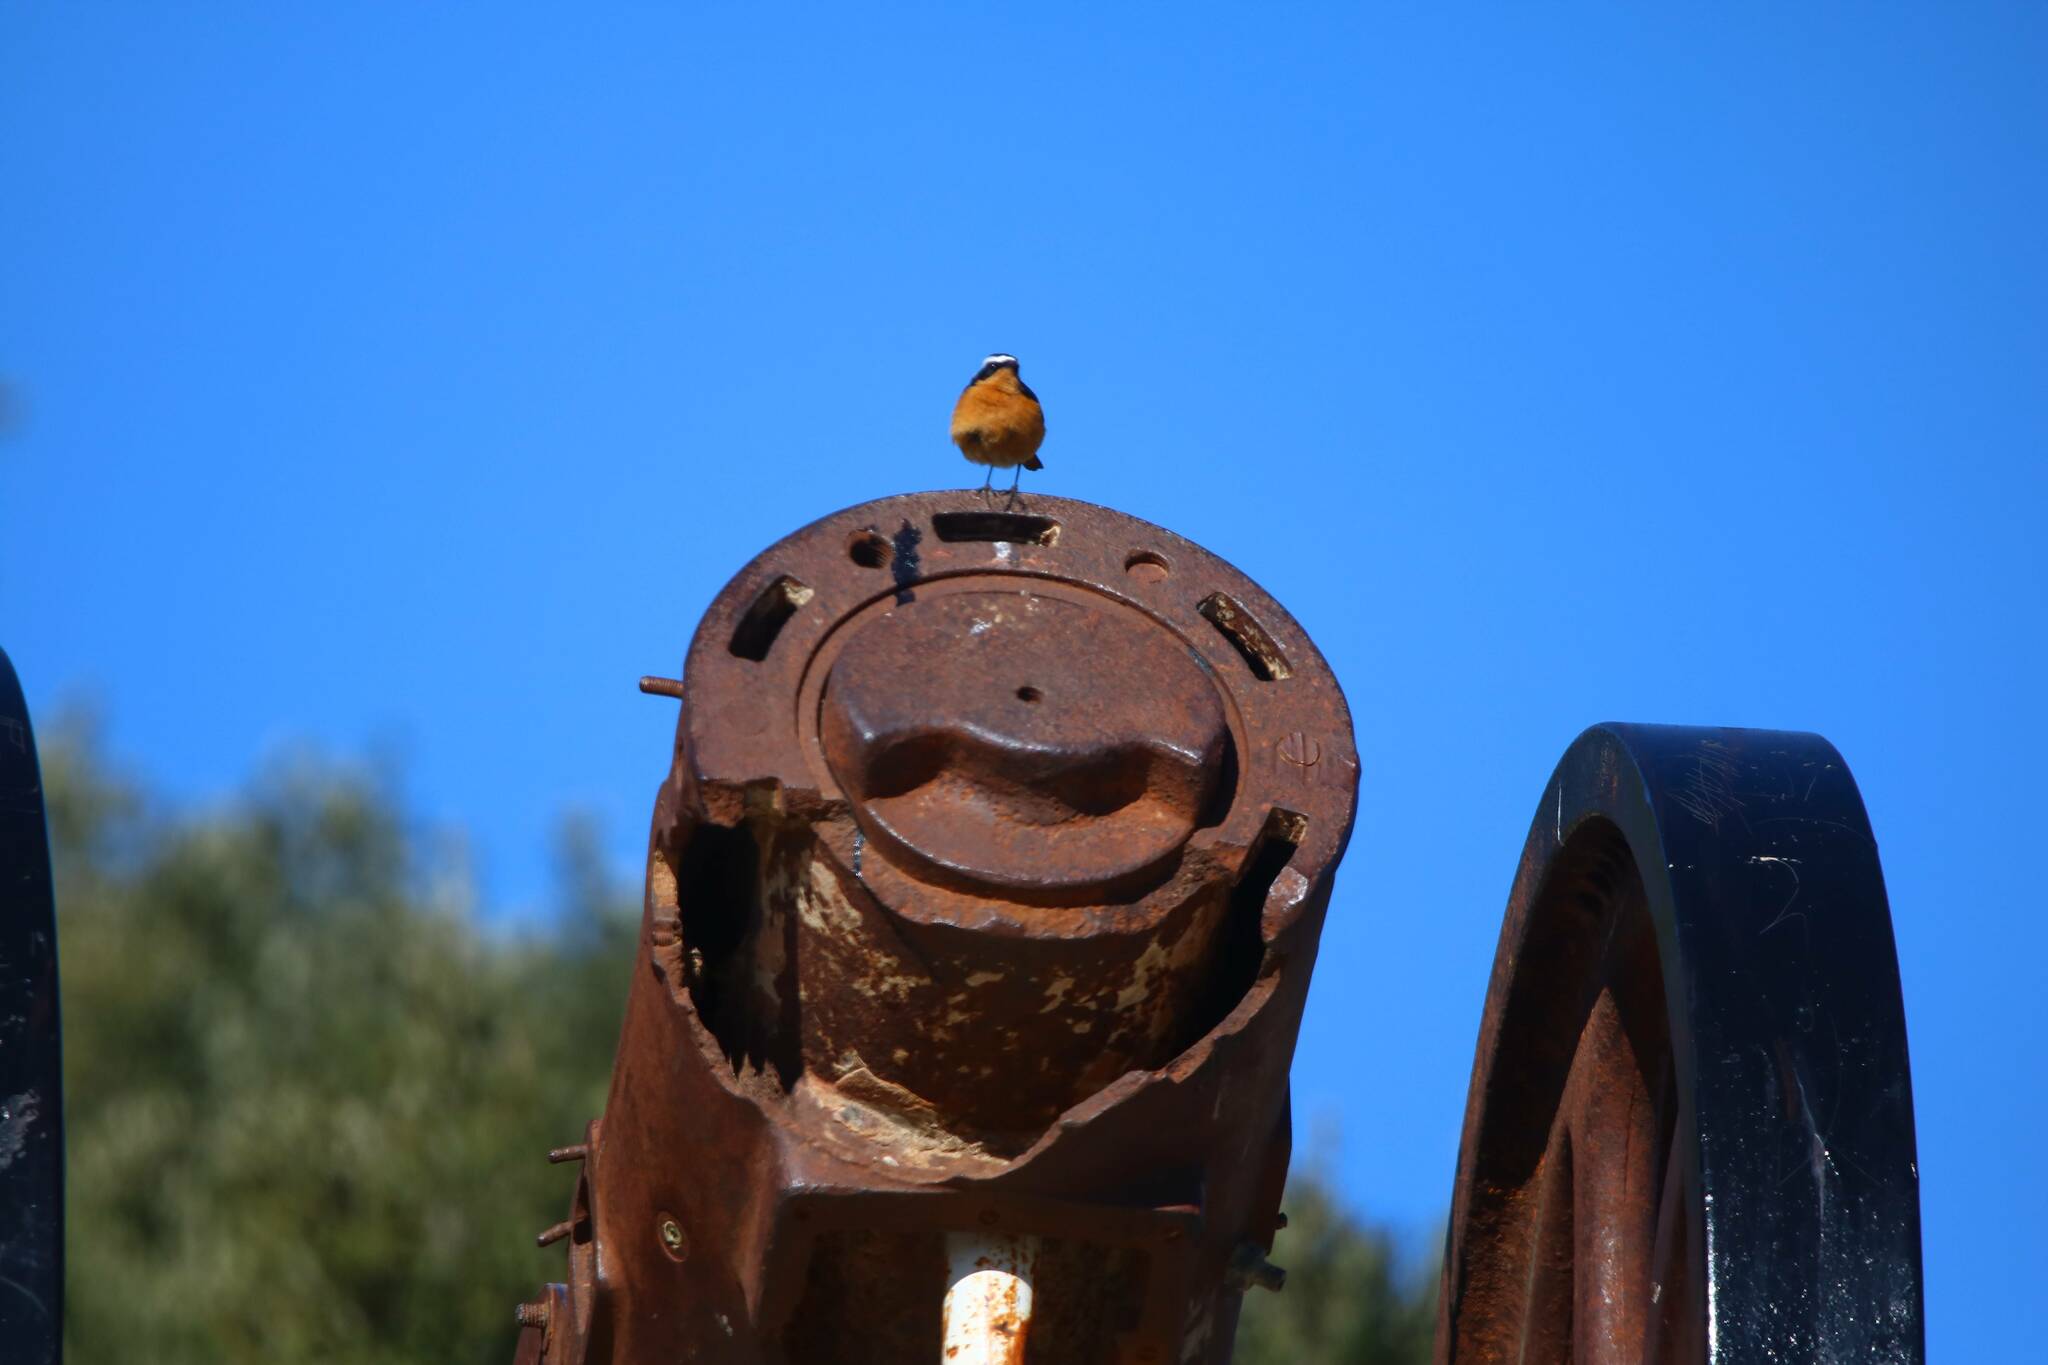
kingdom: Animalia
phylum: Chordata
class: Aves
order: Passeriformes
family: Muscicapidae
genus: Phoenicurus
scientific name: Phoenicurus moussieri
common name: Moussier's redstart
